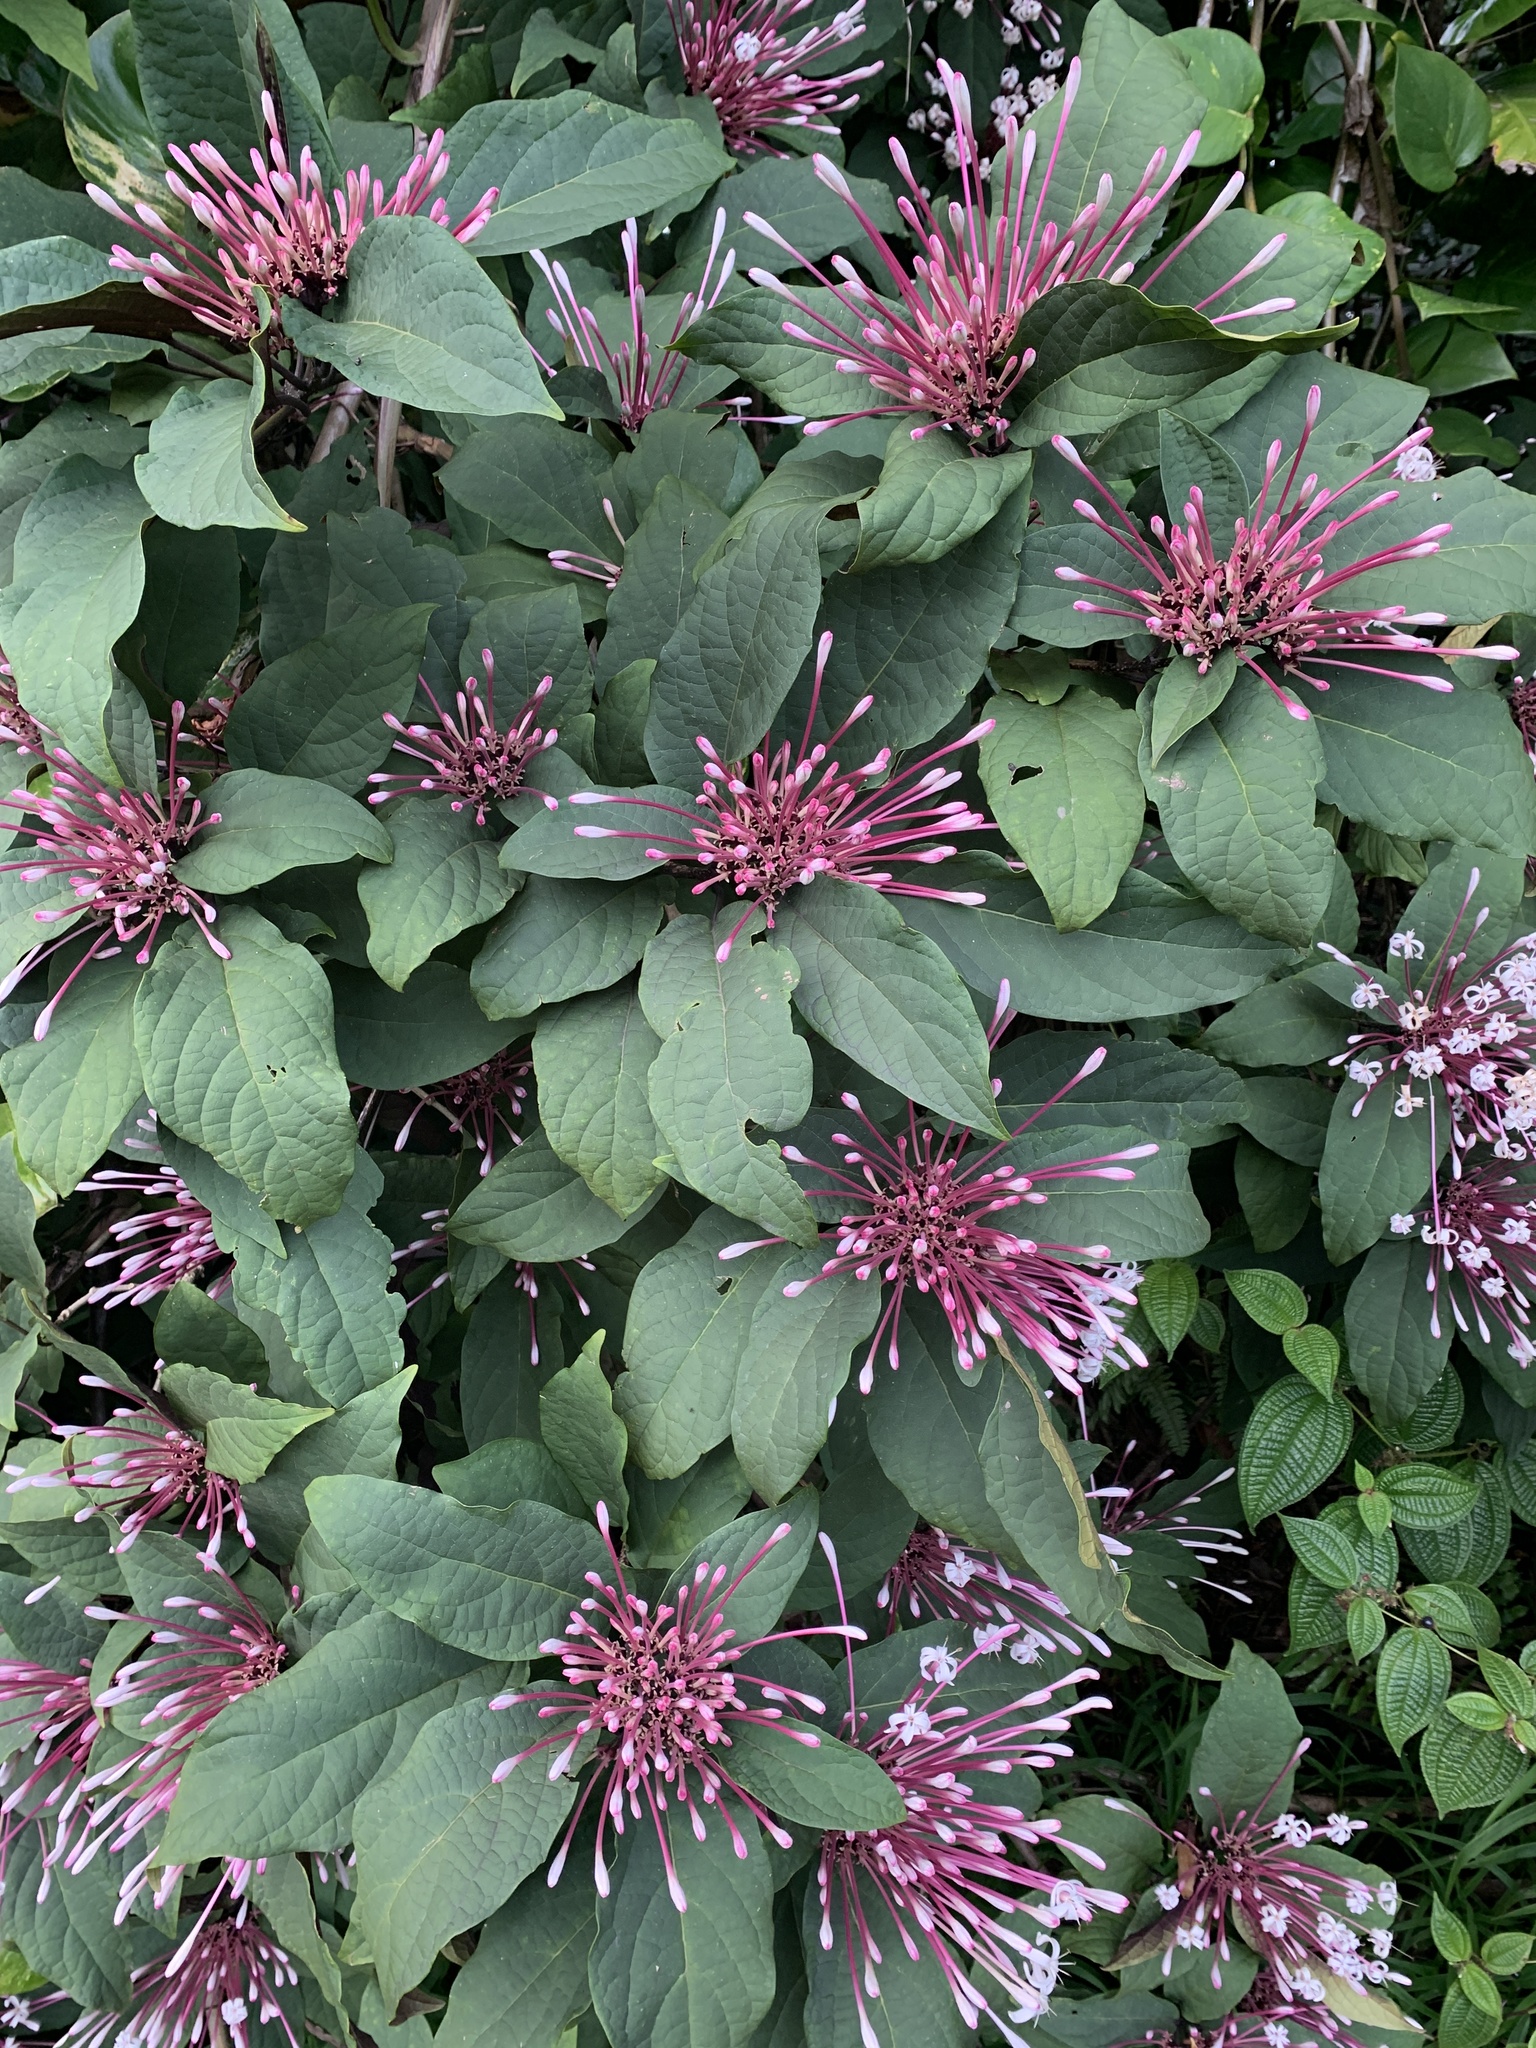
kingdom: Plantae
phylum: Tracheophyta
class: Magnoliopsida
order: Lamiales
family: Lamiaceae
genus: Clerodendrum
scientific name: Clerodendrum quadriloculare
